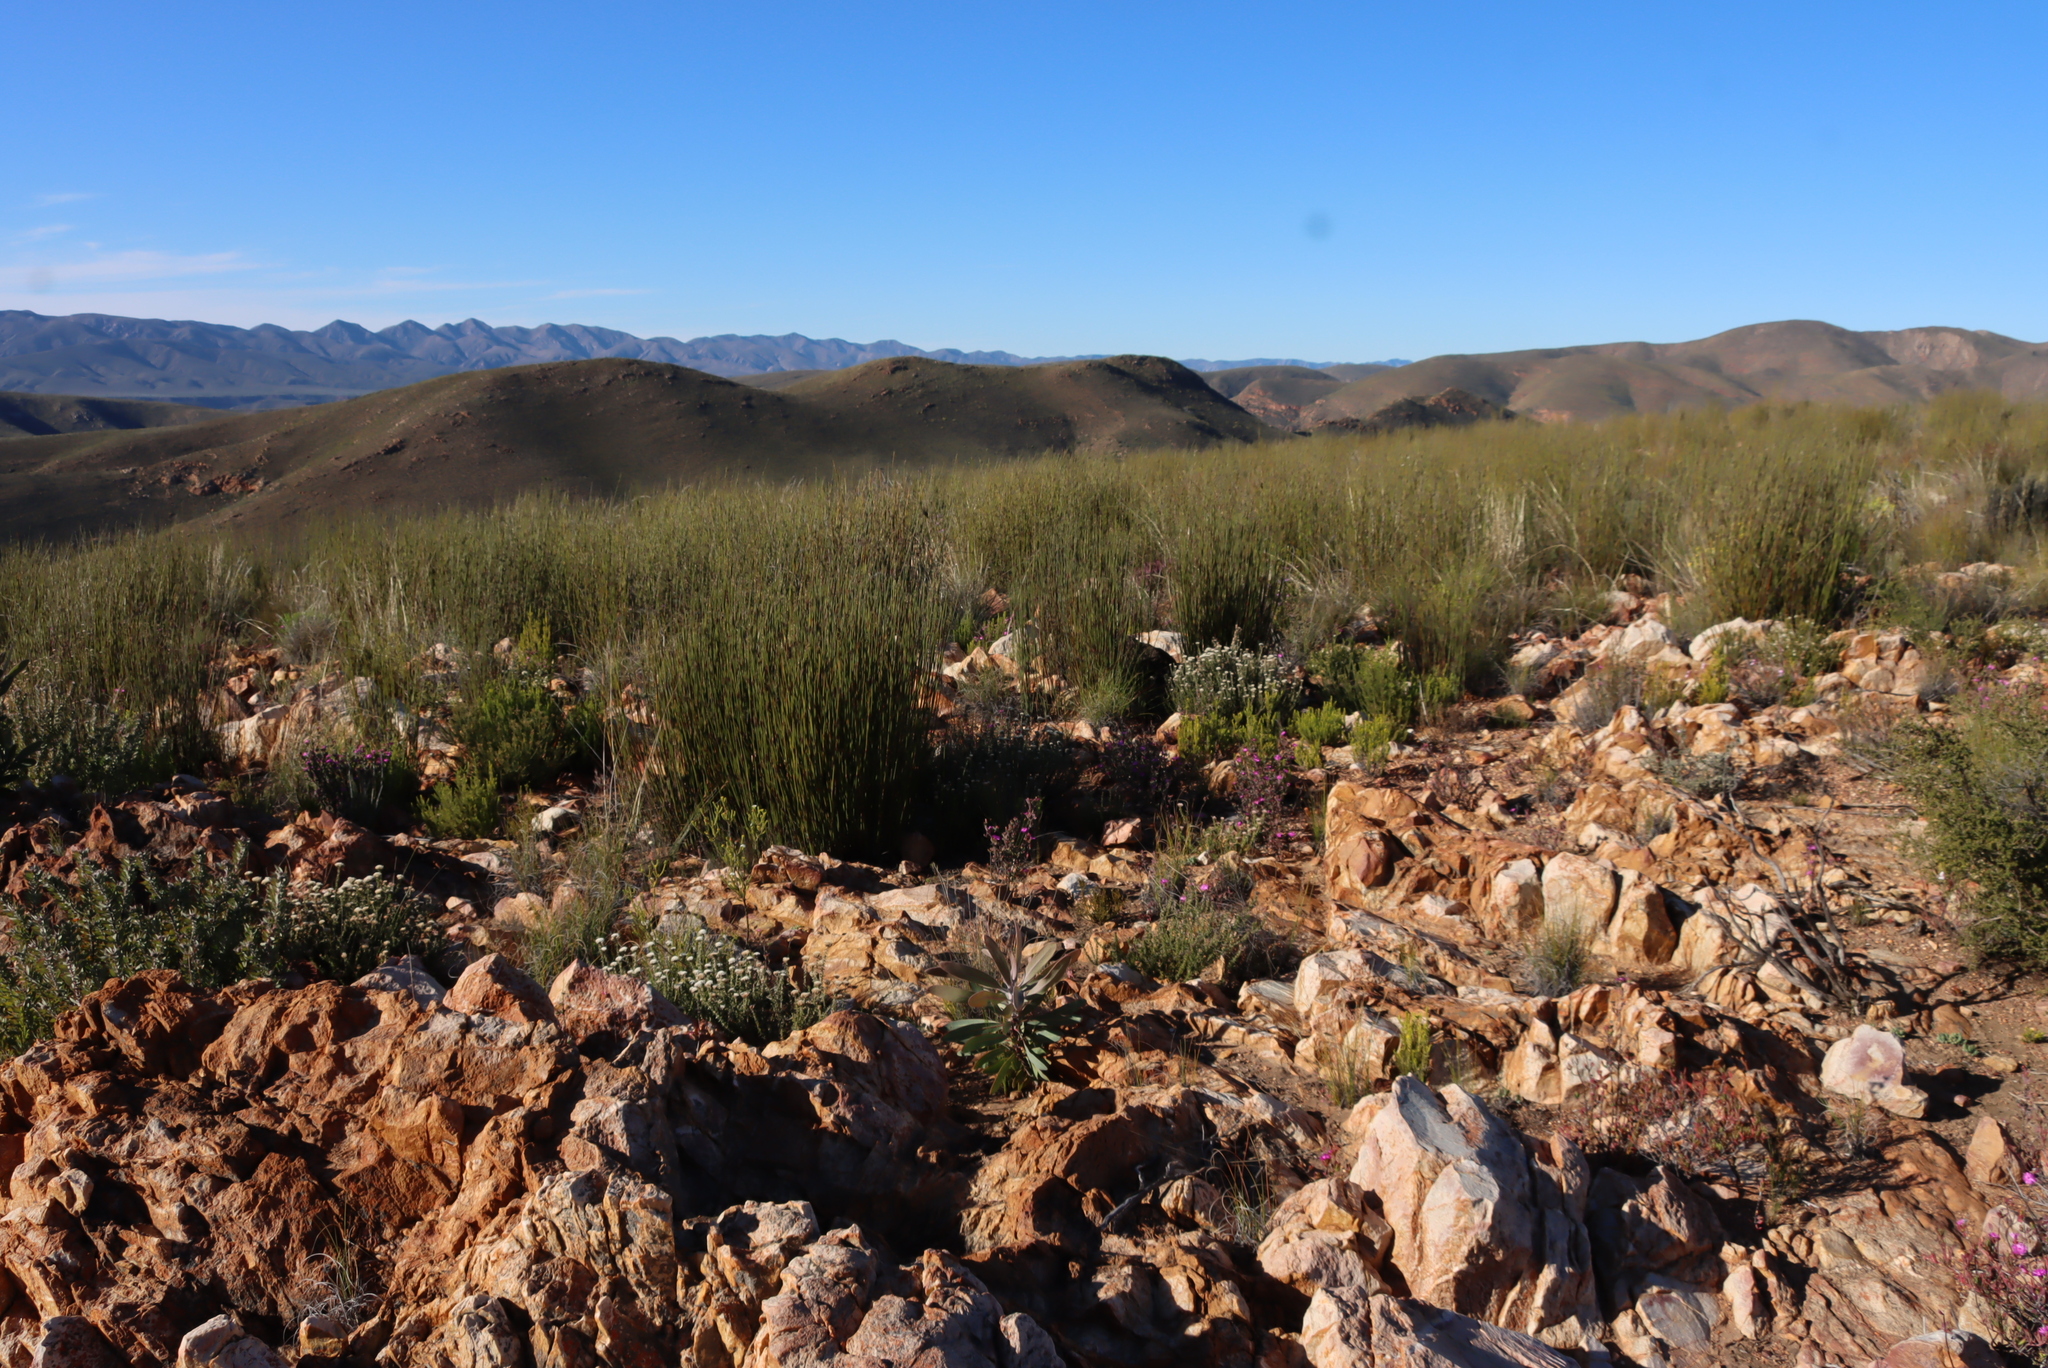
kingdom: Plantae
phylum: Tracheophyta
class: Liliopsida
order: Poales
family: Restionaceae
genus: Cannomois
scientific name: Cannomois scirpoides
